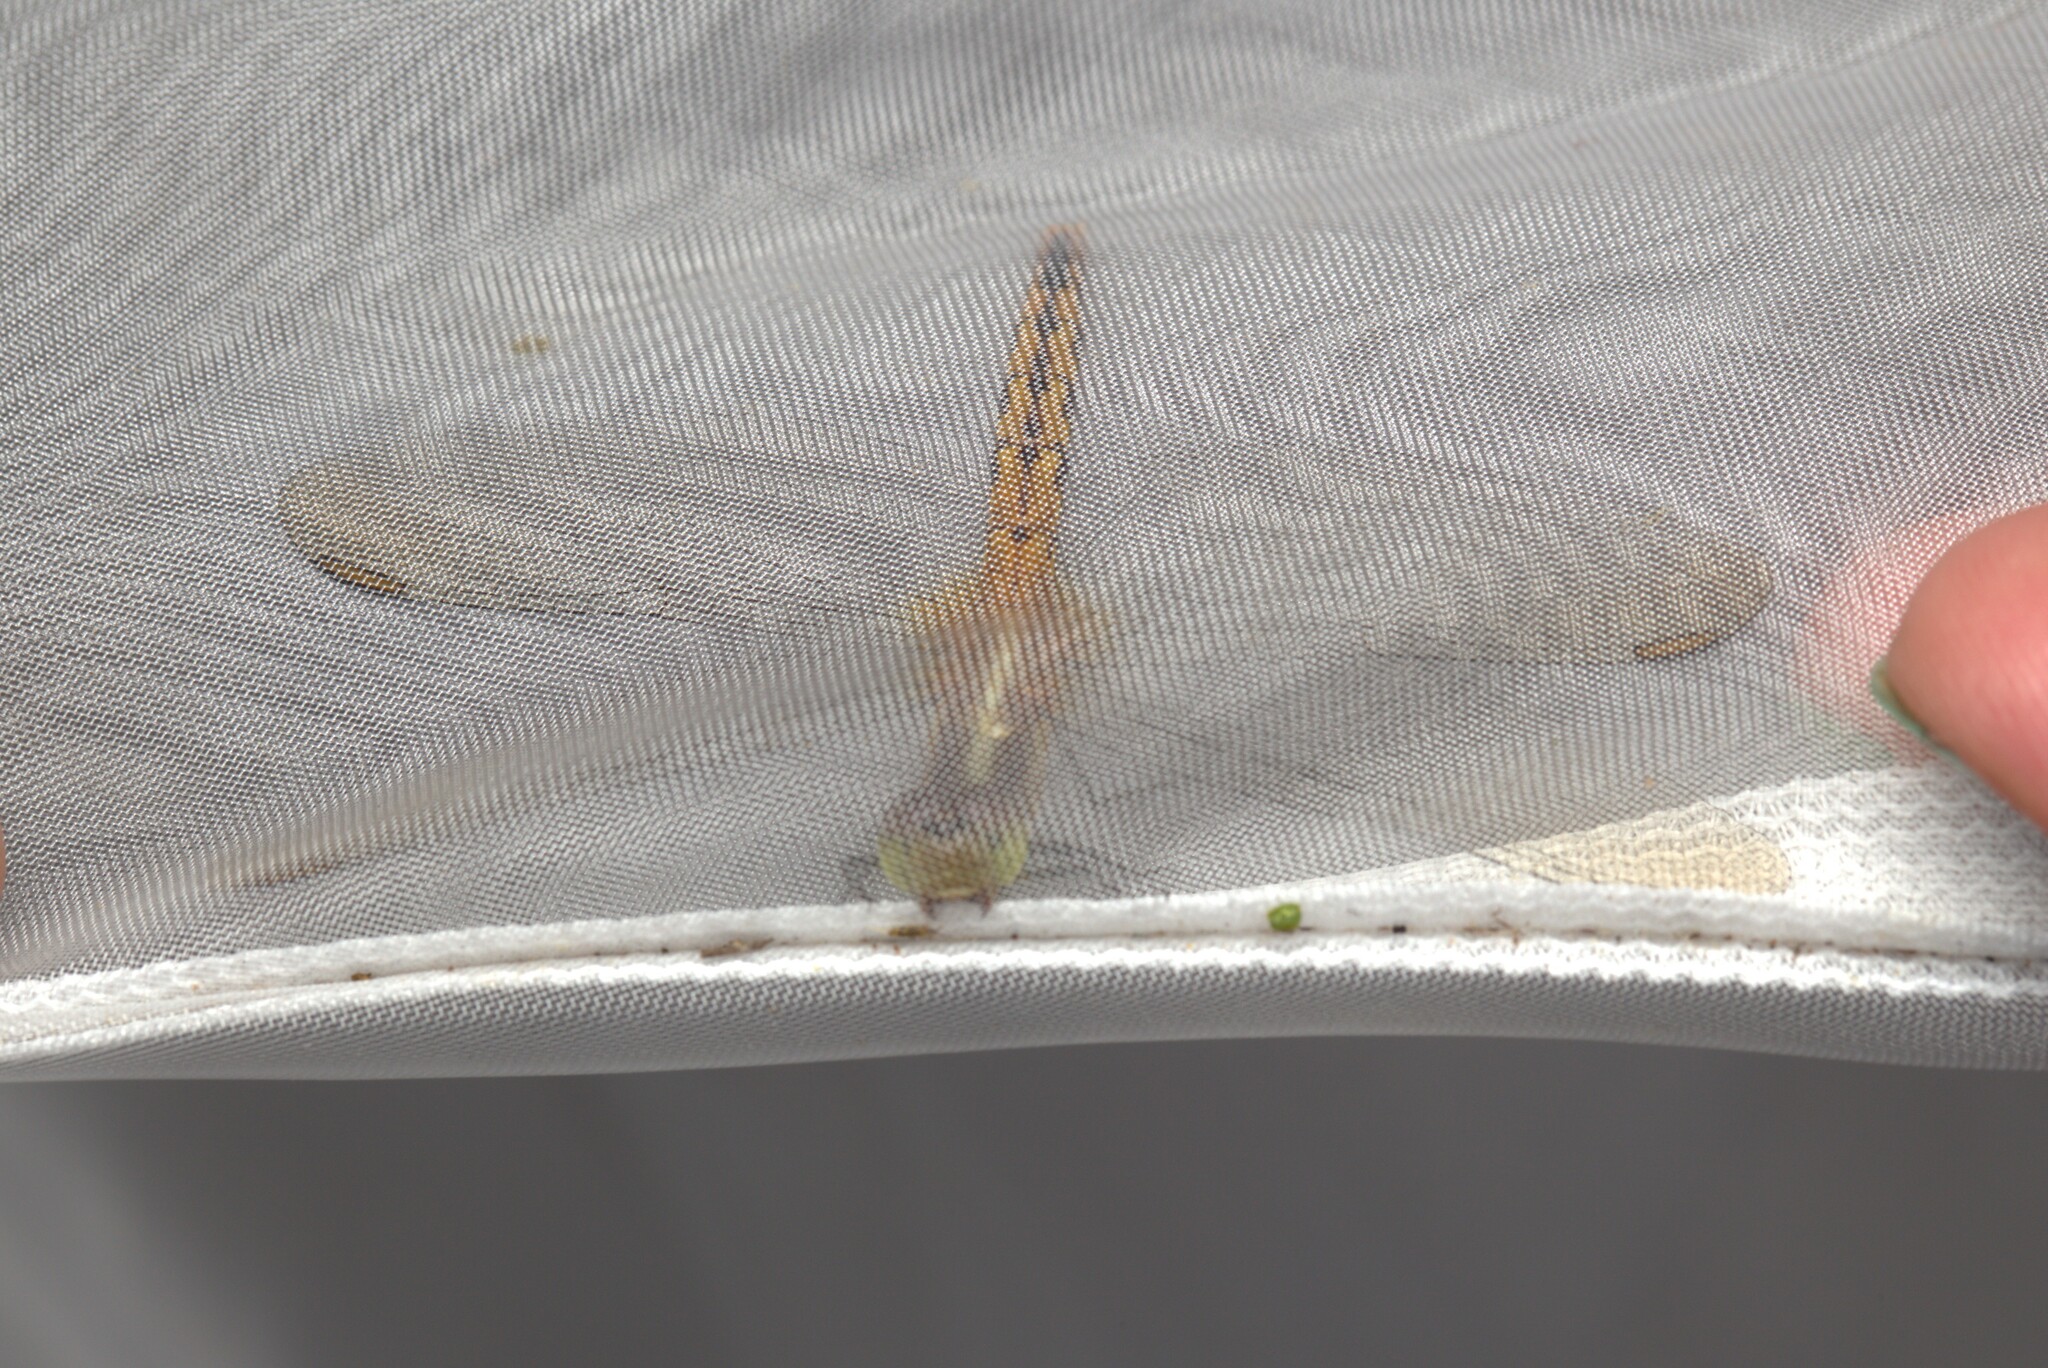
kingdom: Animalia
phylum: Arthropoda
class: Insecta
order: Odonata
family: Libellulidae
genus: Diplacodes
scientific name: Diplacodes melanopsis
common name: Black-faced percher
